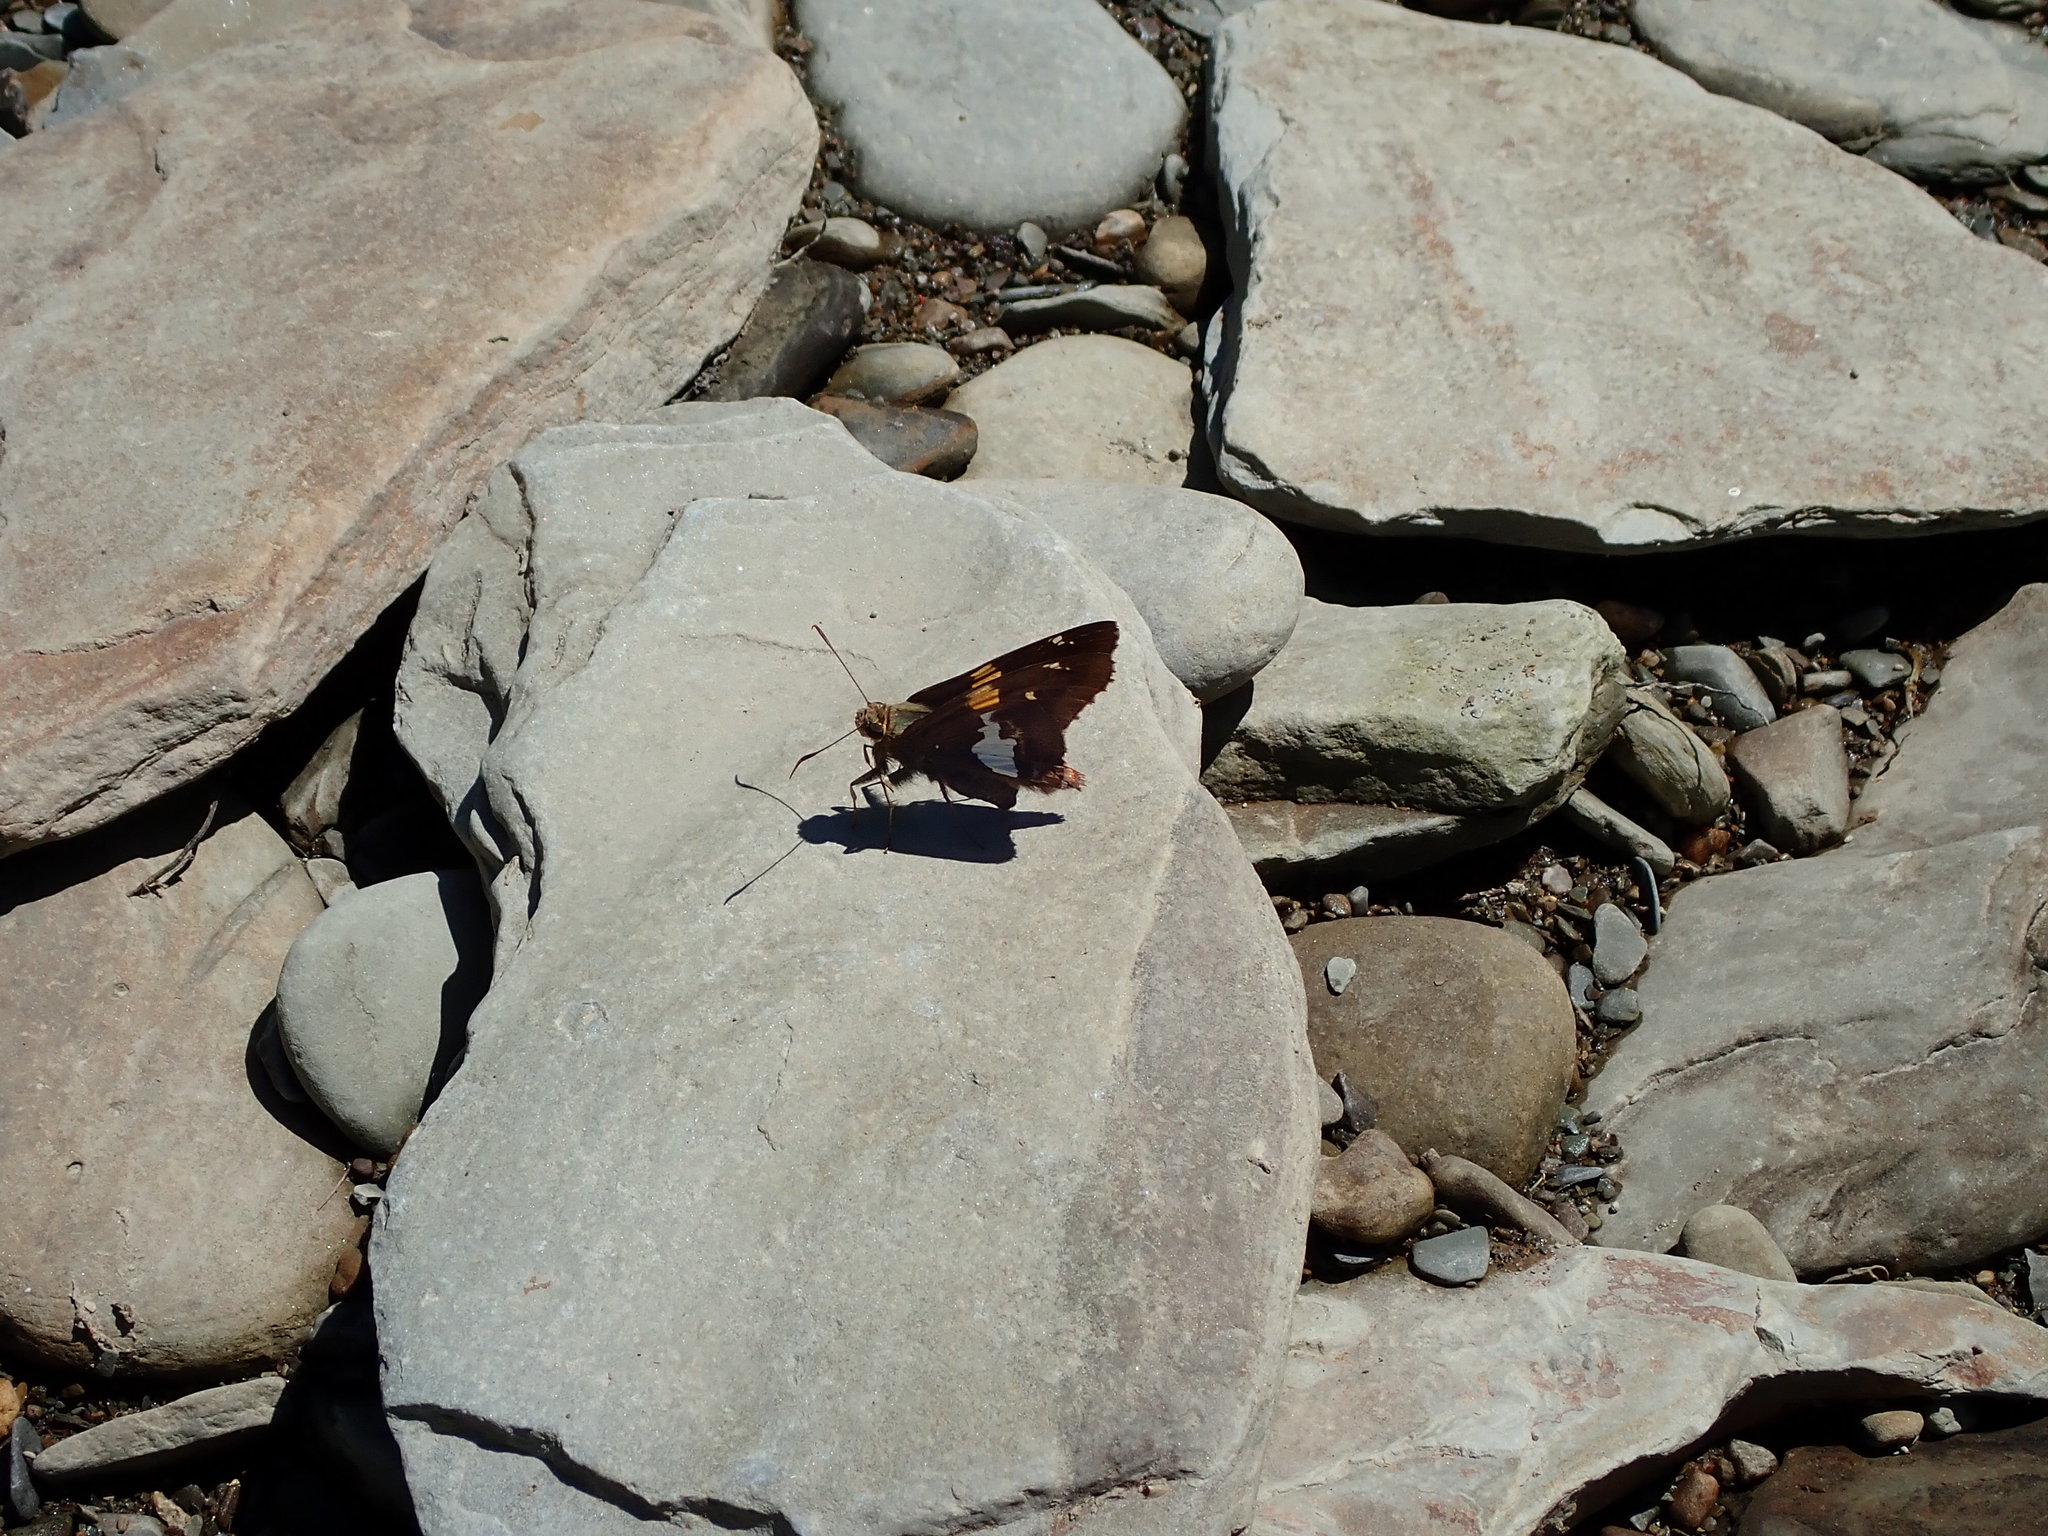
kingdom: Animalia
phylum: Arthropoda
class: Insecta
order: Lepidoptera
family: Hesperiidae
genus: Epargyreus
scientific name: Epargyreus clarus
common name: Silver-spotted skipper
